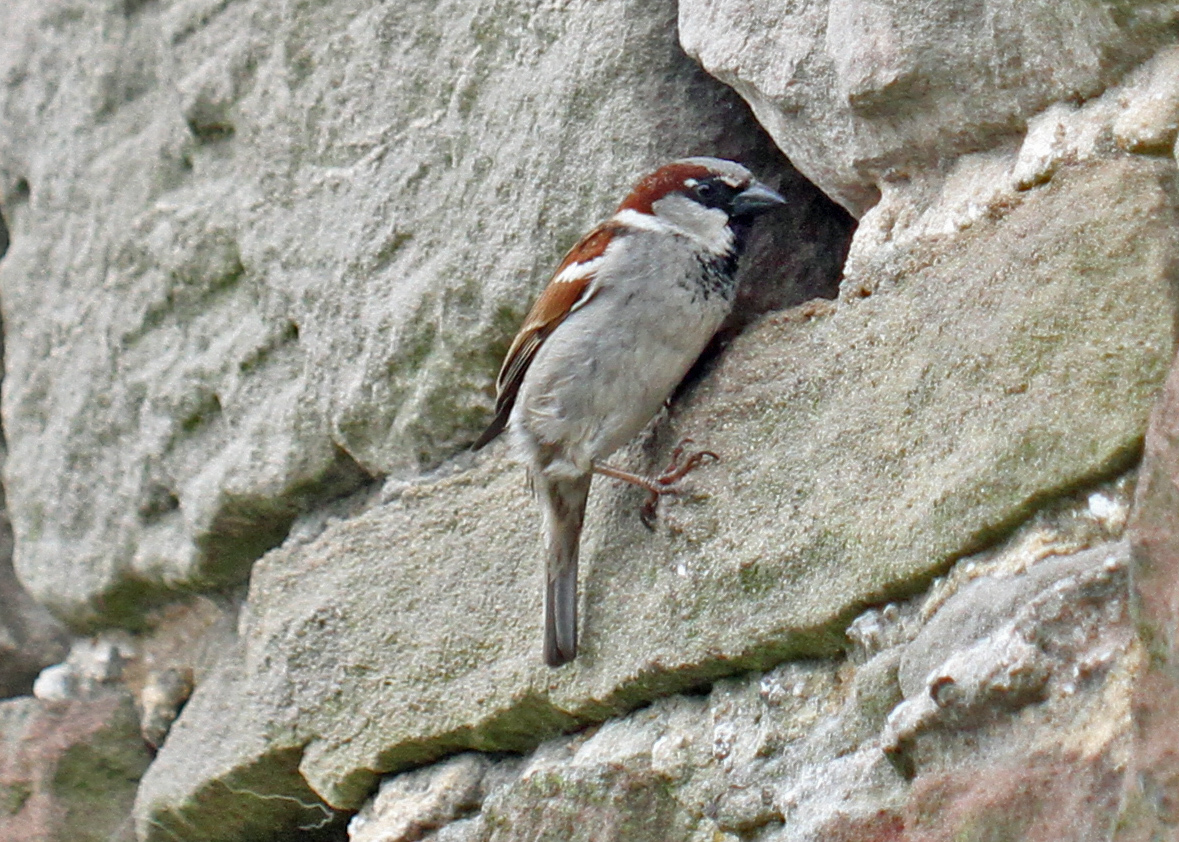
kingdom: Animalia
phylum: Chordata
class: Aves
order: Passeriformes
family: Passeridae
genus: Passer
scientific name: Passer domesticus
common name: House sparrow
